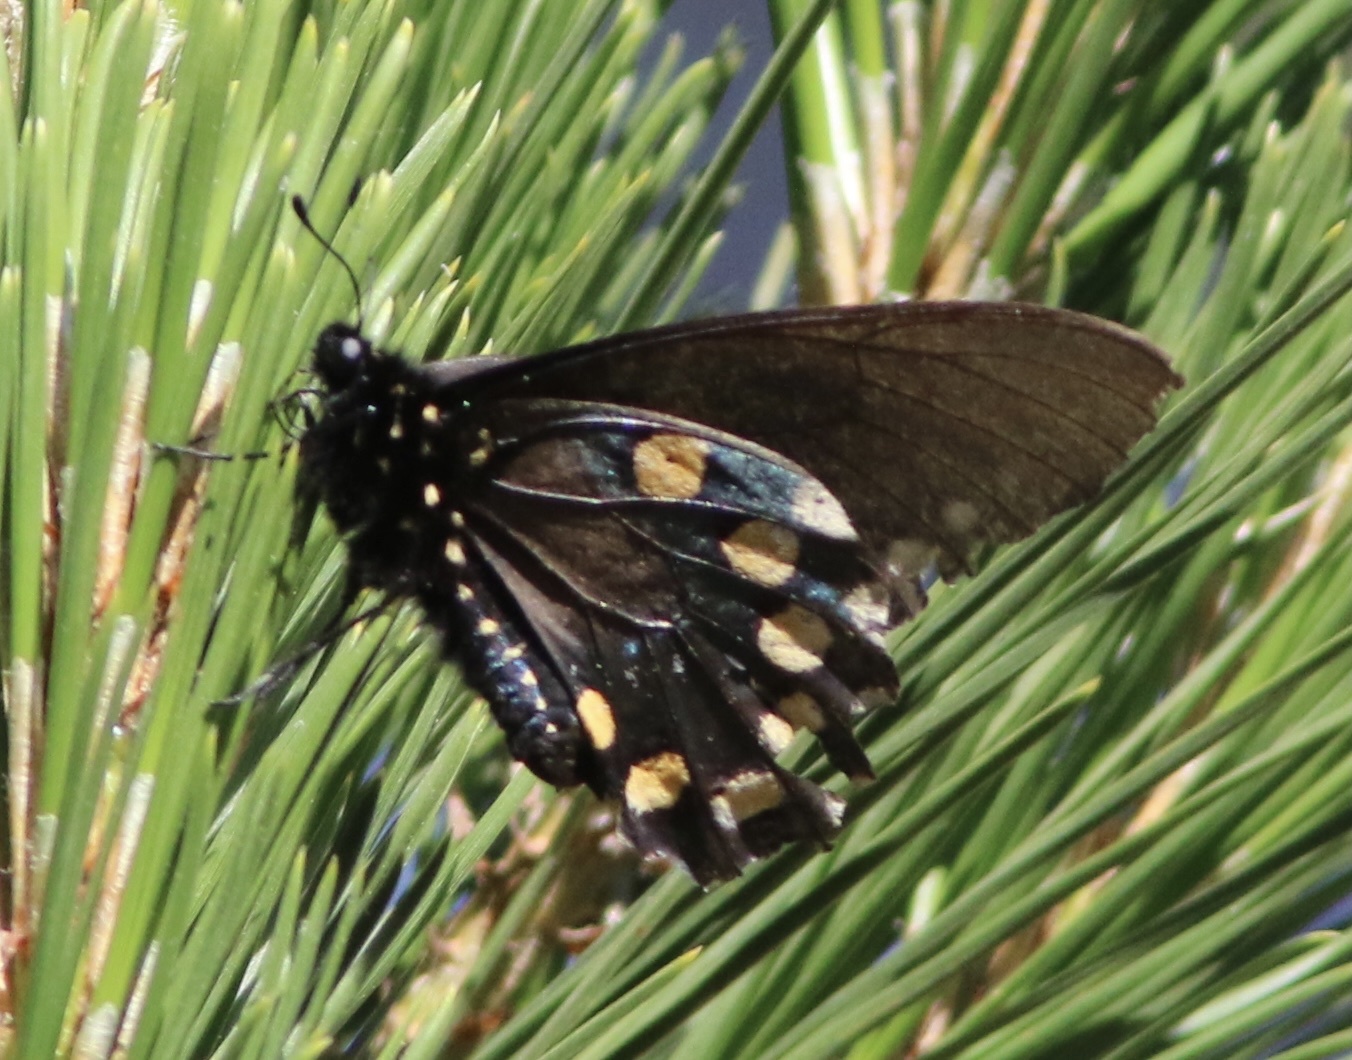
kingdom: Animalia
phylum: Arthropoda
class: Insecta
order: Lepidoptera
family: Papilionidae
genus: Battus
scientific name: Battus philenor
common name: Pipevine swallowtail
